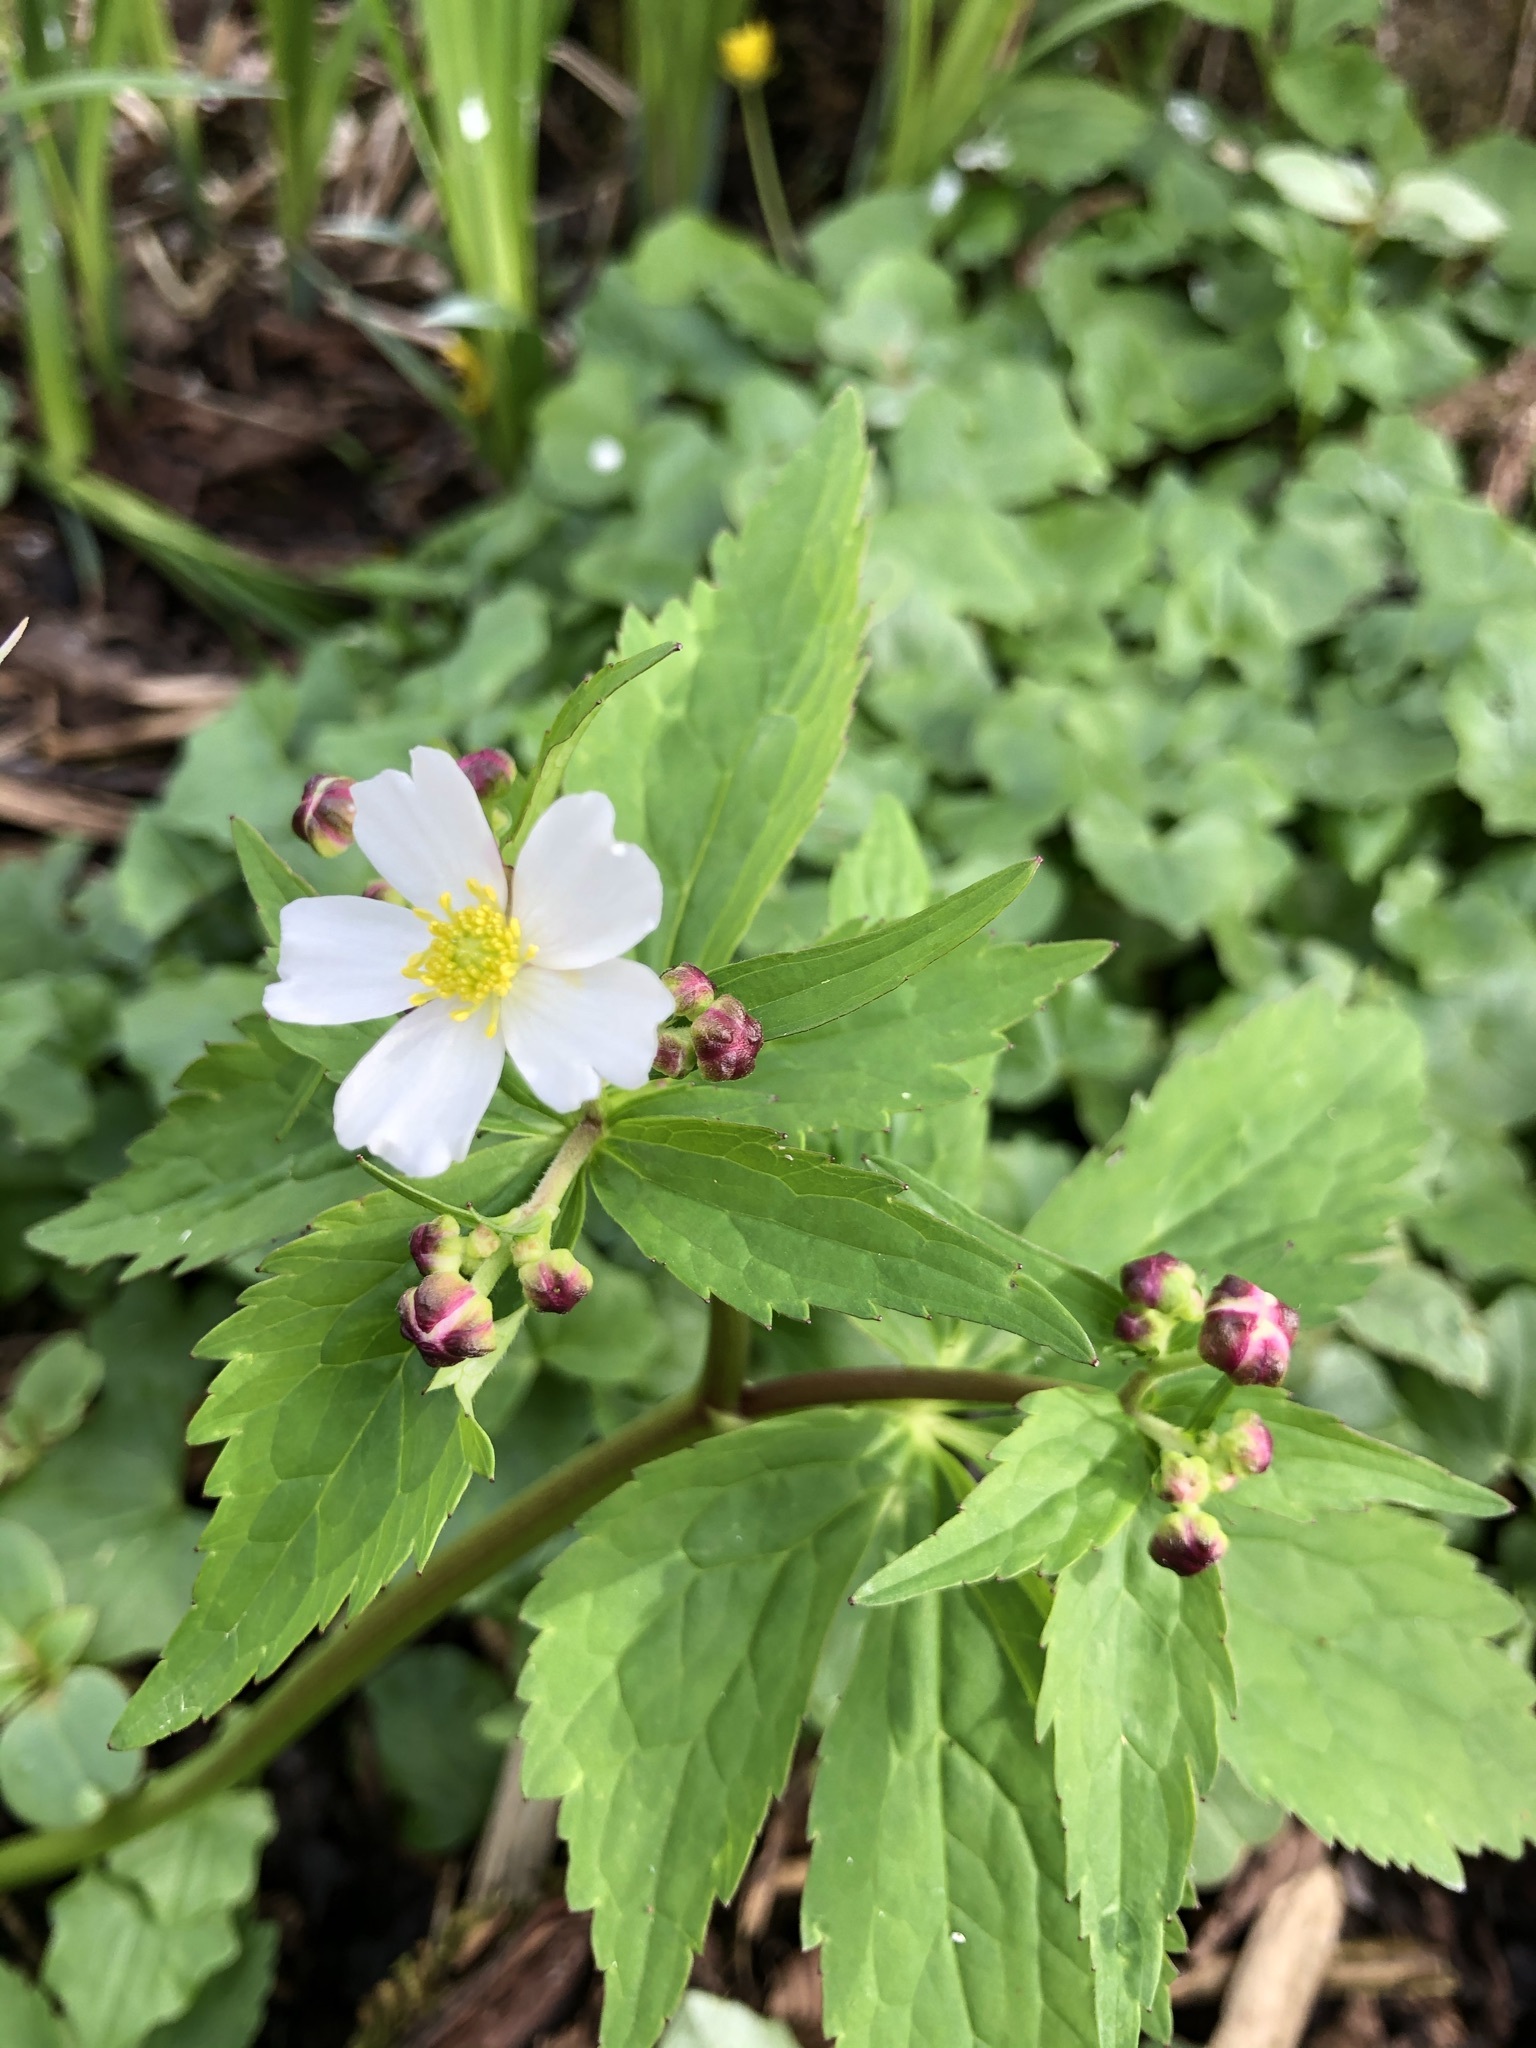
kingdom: Plantae
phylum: Tracheophyta
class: Magnoliopsida
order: Ranunculales
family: Ranunculaceae
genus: Ranunculus
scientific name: Ranunculus aconitifolius
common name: Aconite-leaved buttercup
